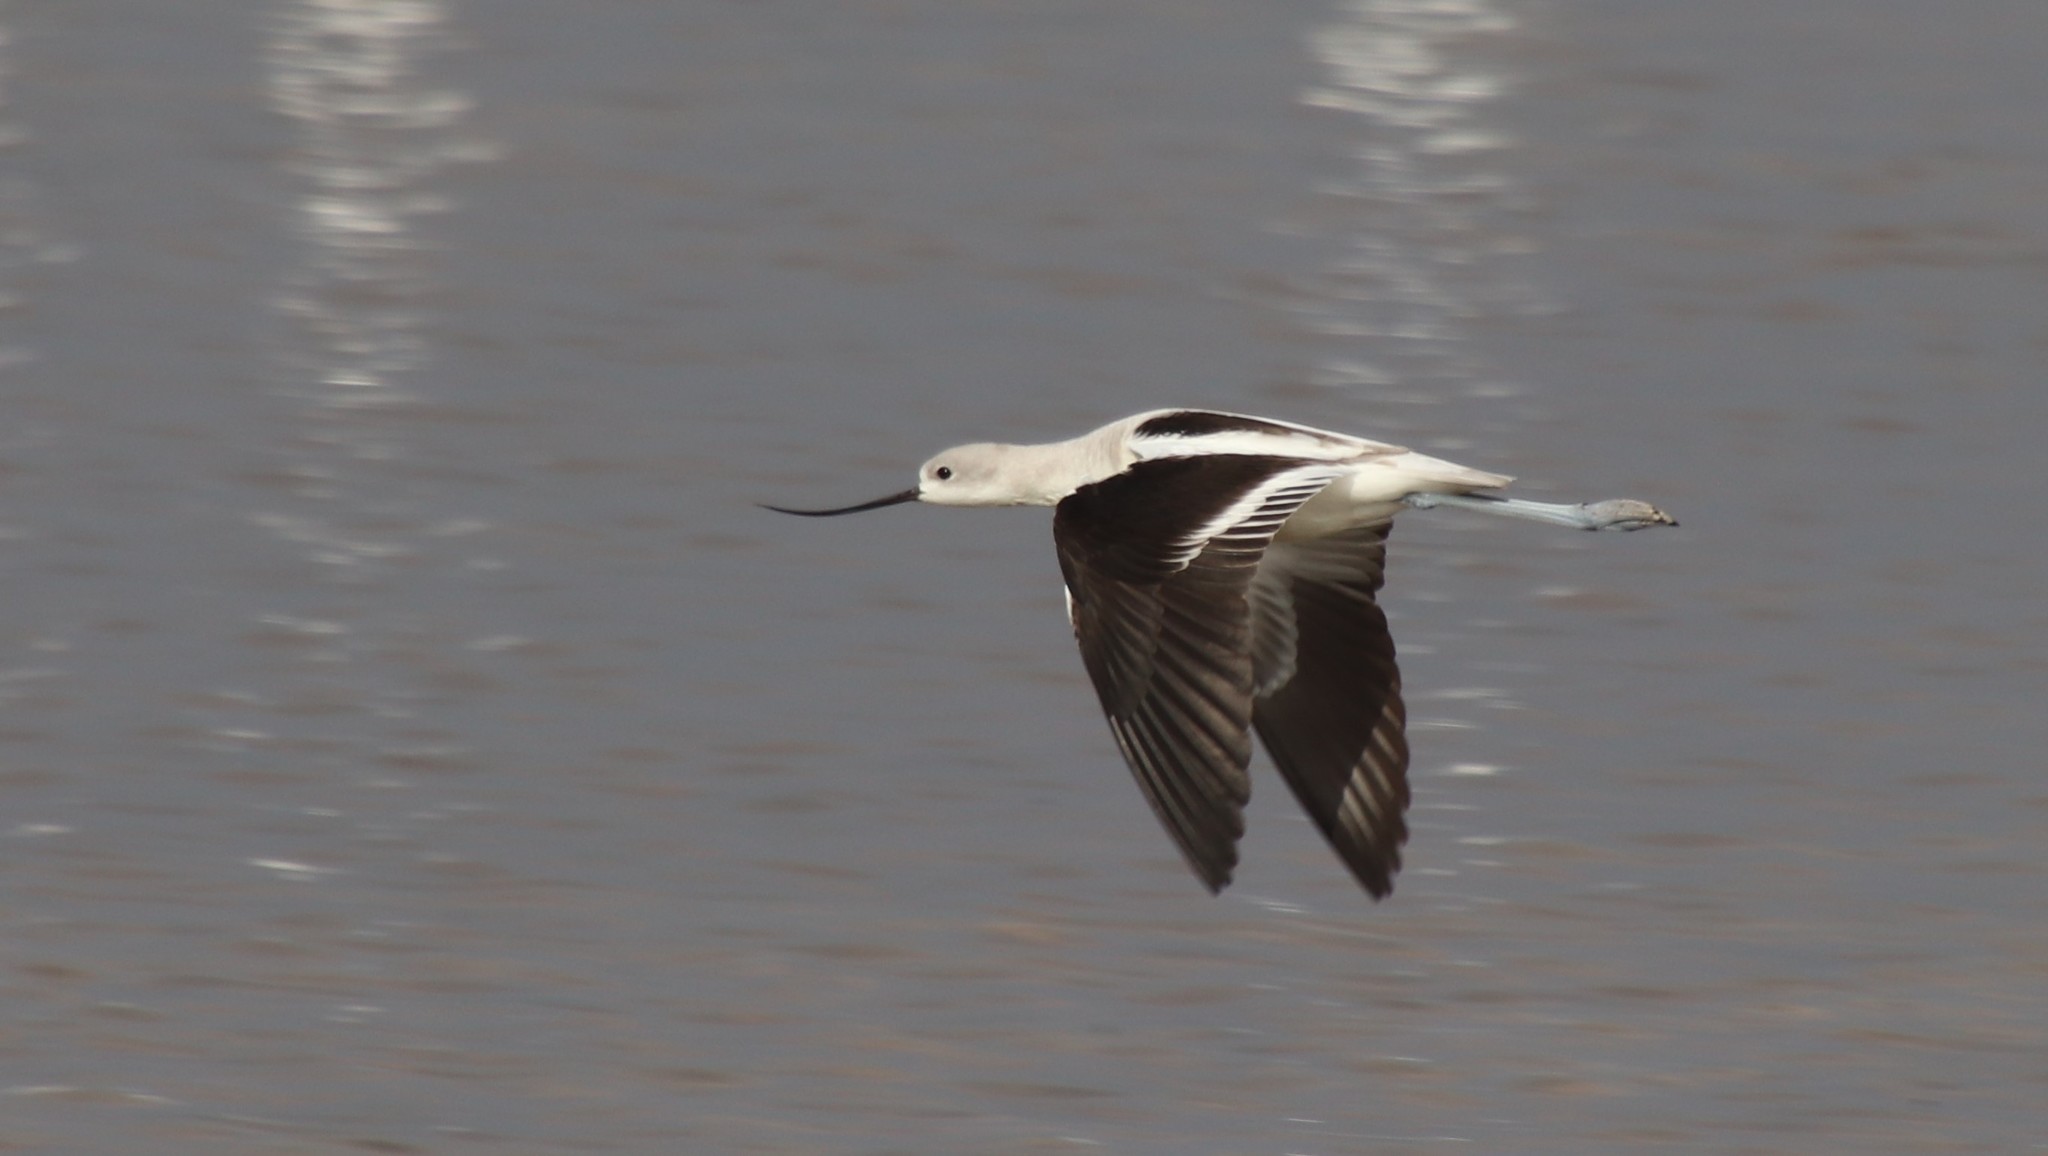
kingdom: Animalia
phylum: Chordata
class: Aves
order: Charadriiformes
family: Recurvirostridae
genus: Recurvirostra
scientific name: Recurvirostra americana
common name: American avocet
